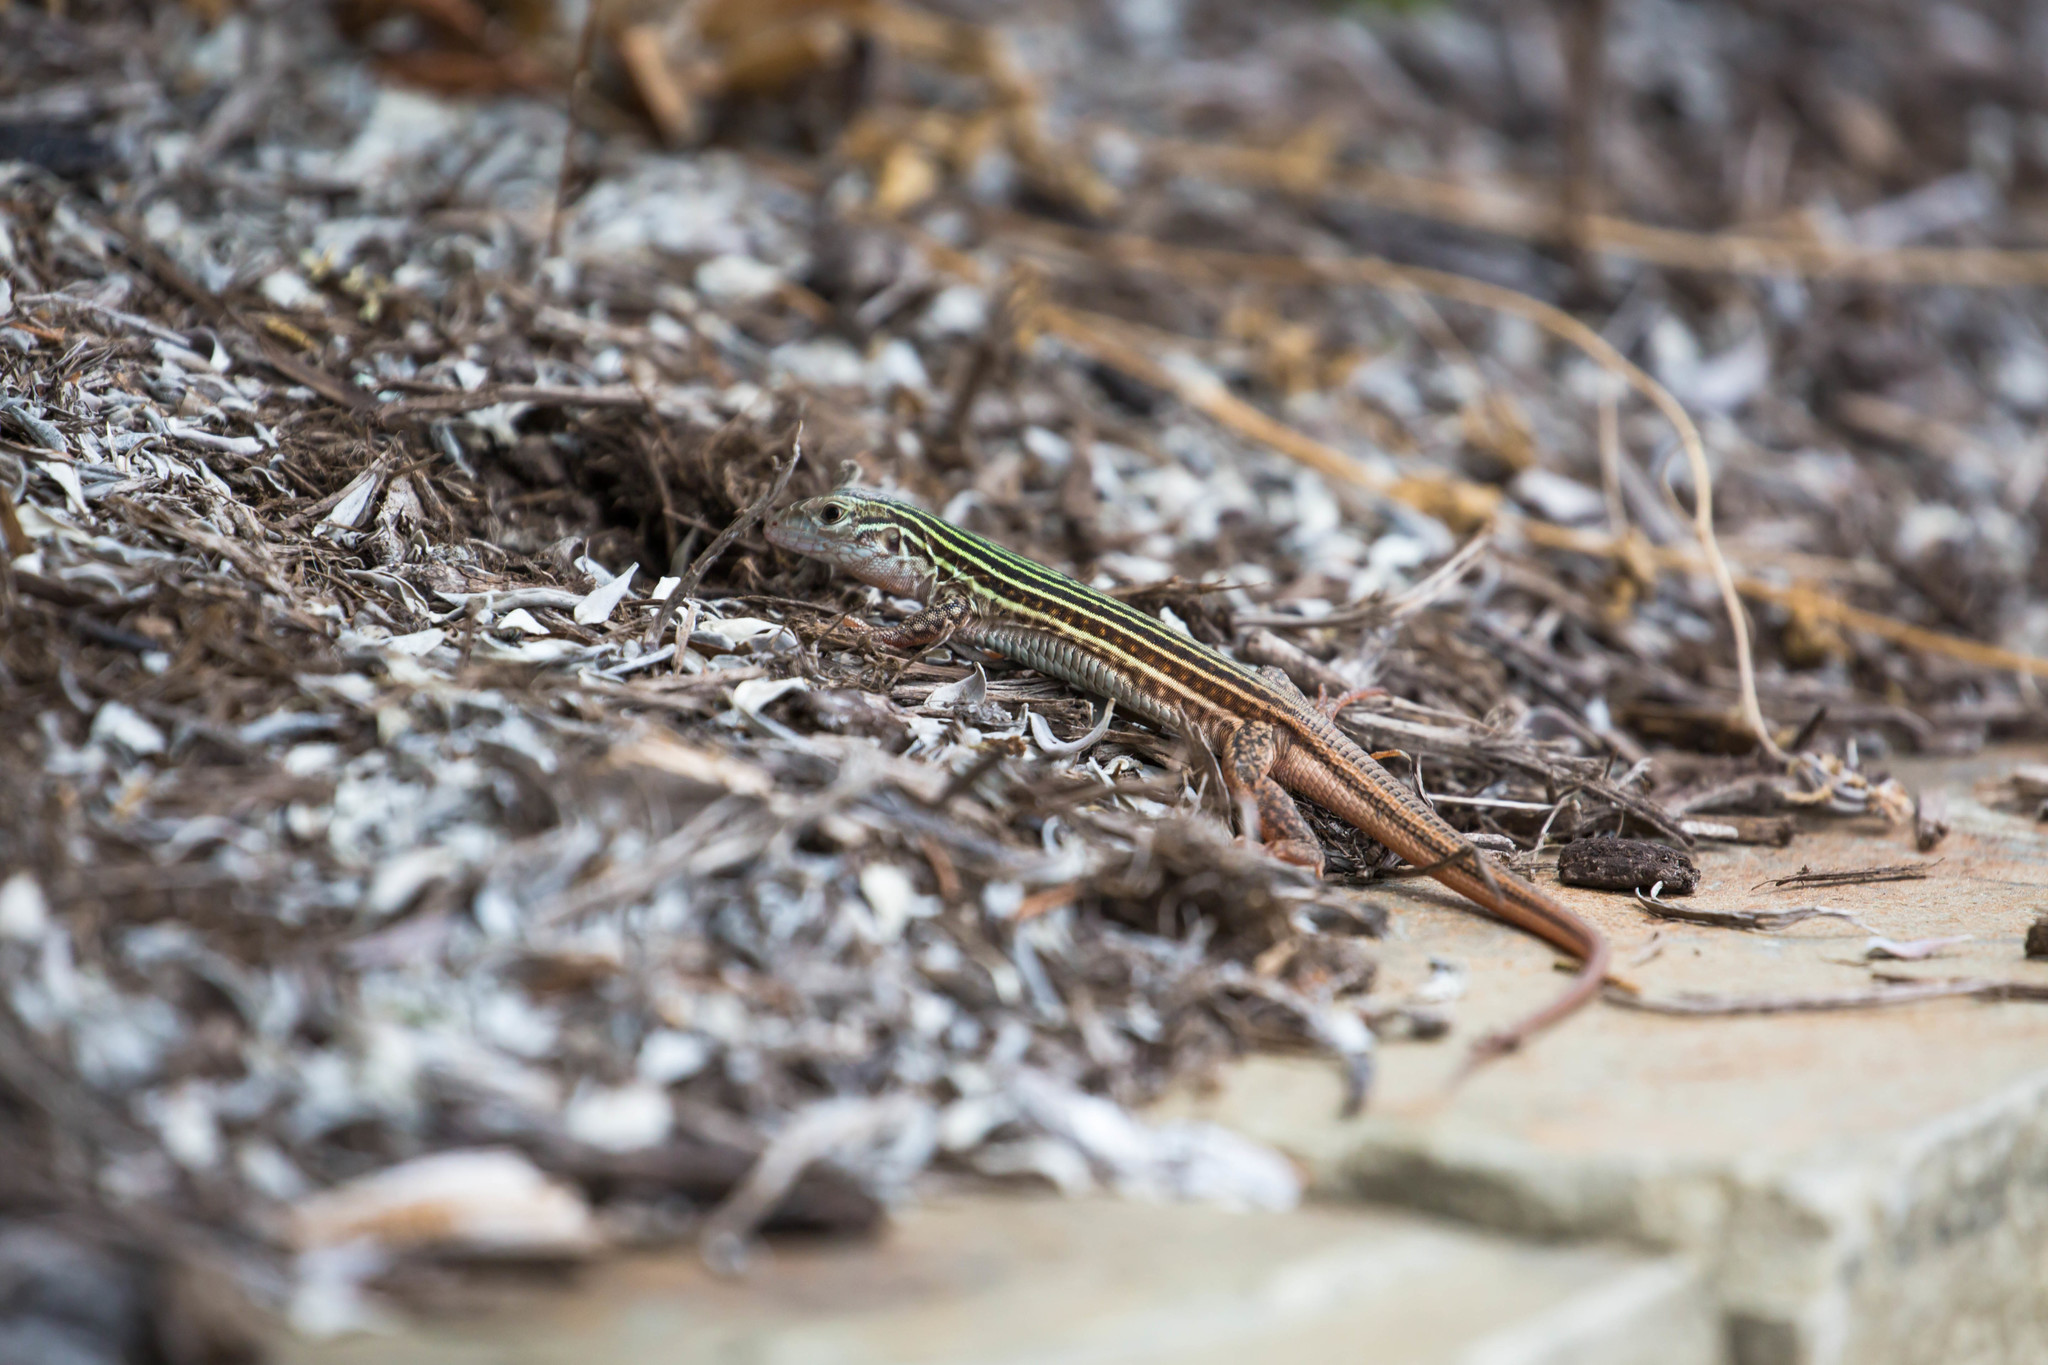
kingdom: Animalia
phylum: Chordata
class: Squamata
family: Teiidae
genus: Aspidoscelis
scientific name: Aspidoscelis gularis
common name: Eastern spotted whiptail
